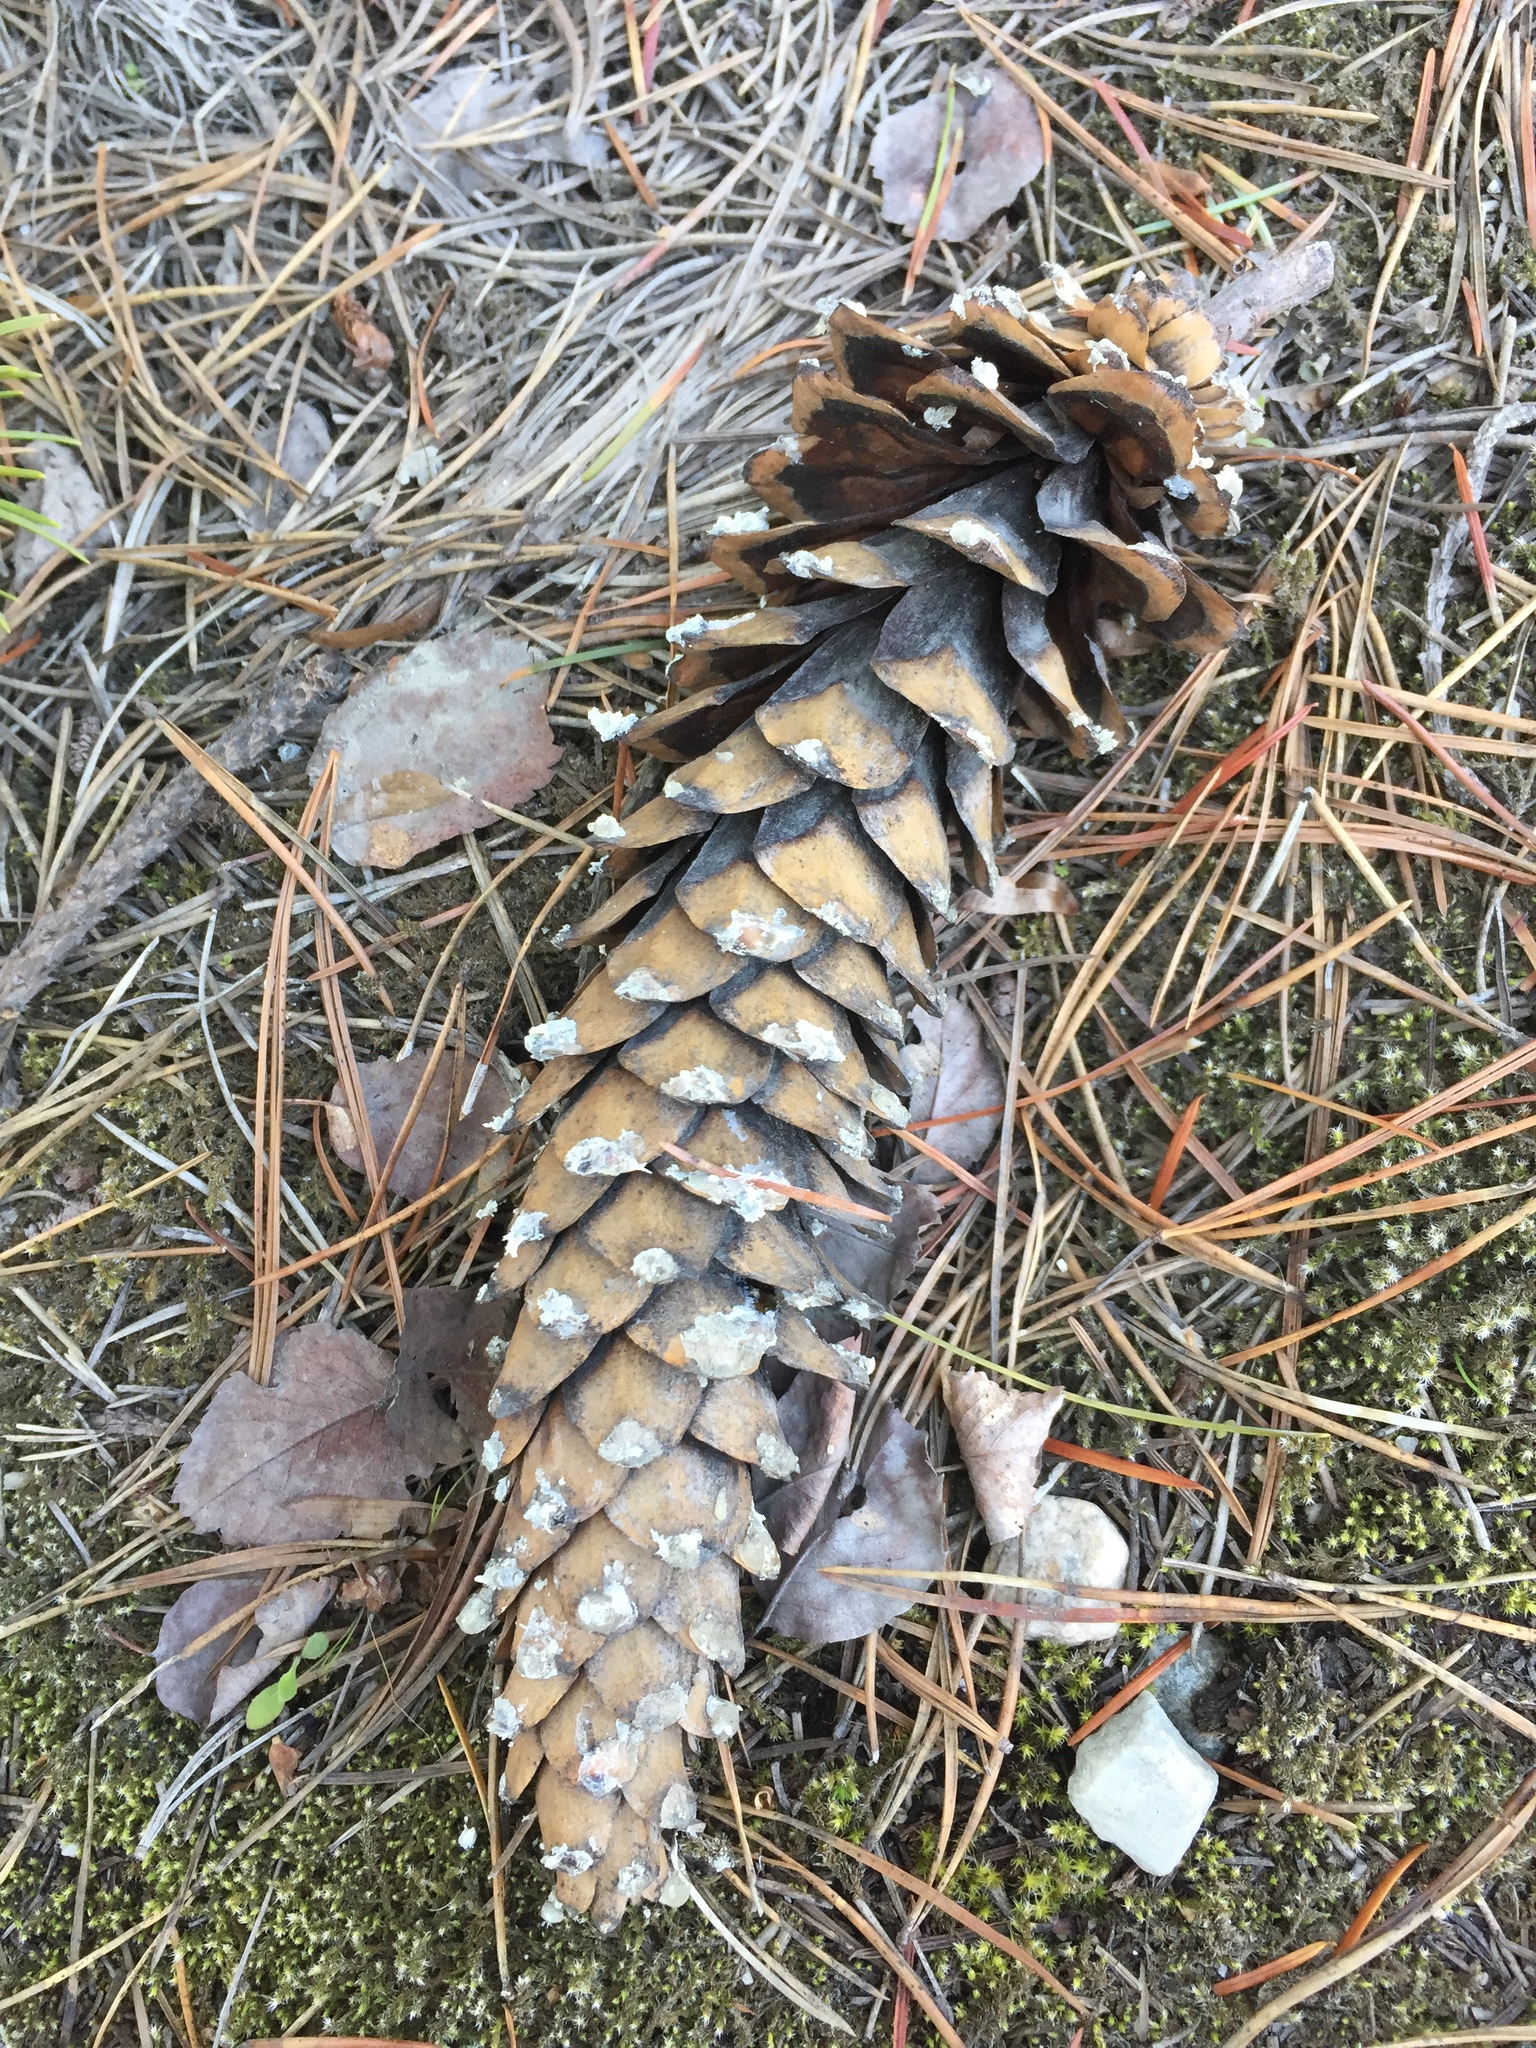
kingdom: Plantae
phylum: Tracheophyta
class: Pinopsida
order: Pinales
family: Pinaceae
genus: Pinus
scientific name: Pinus monticola
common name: Western white pine
